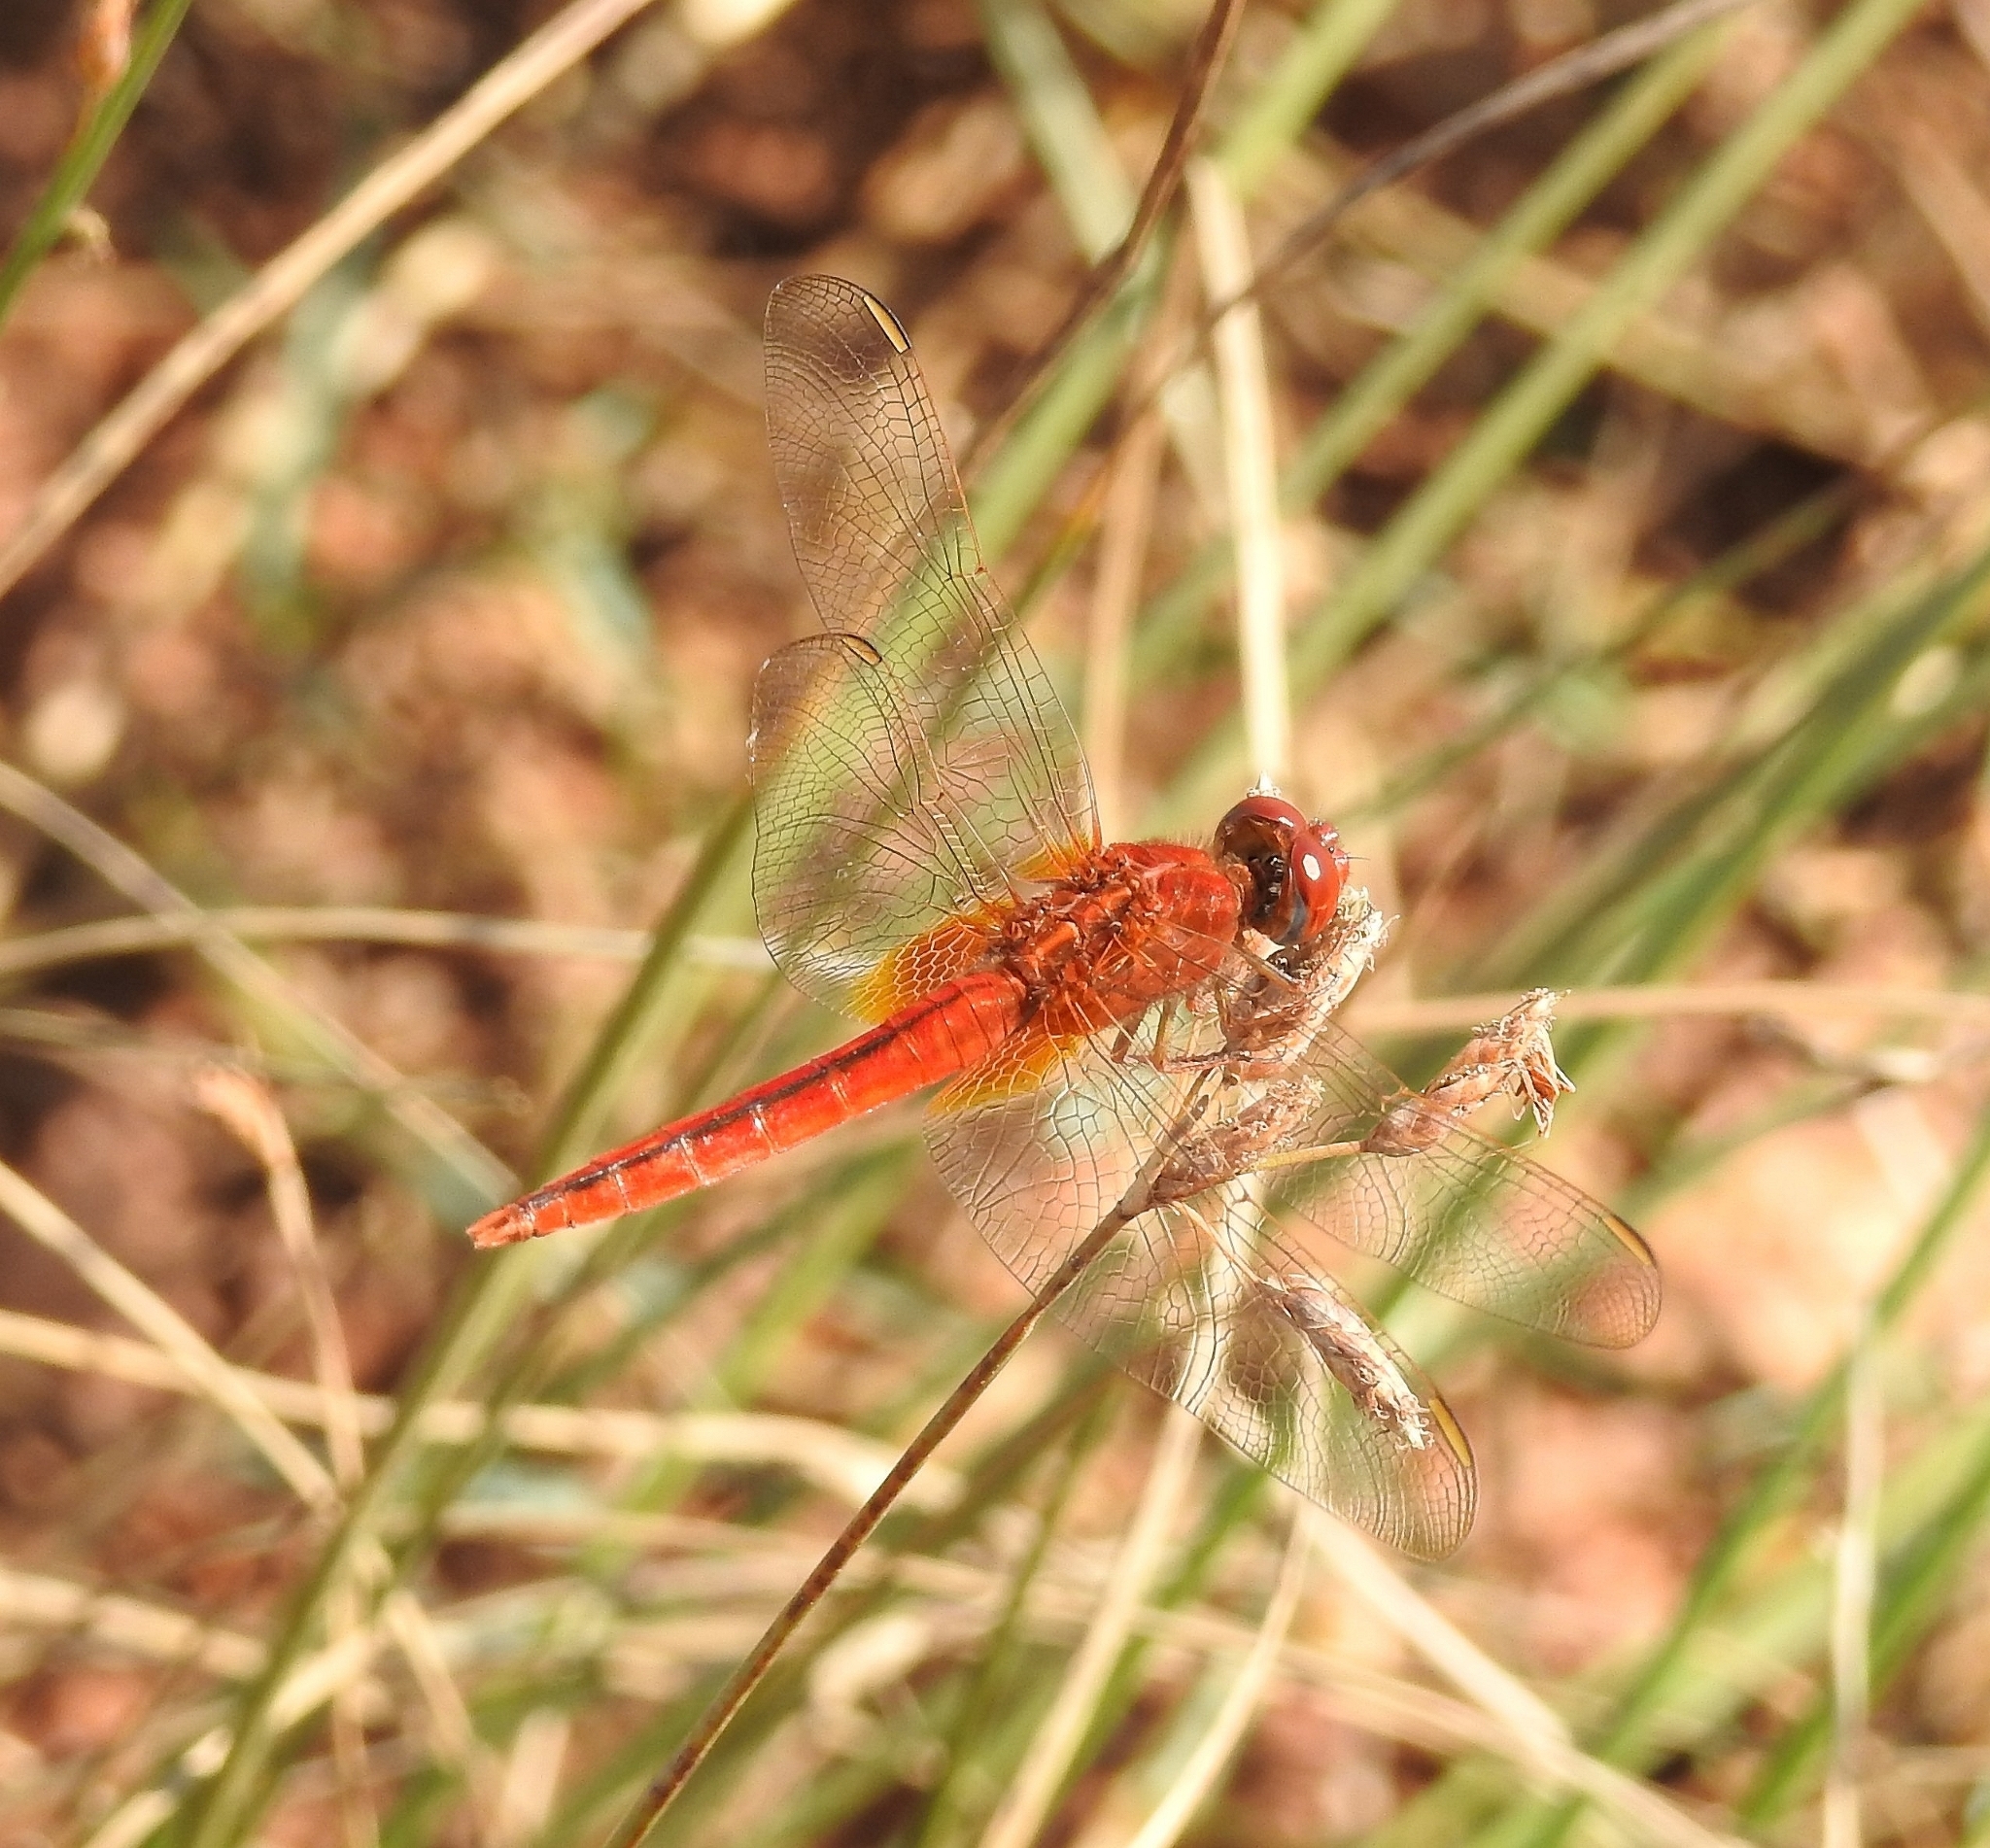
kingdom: Animalia
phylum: Arthropoda
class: Insecta
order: Odonata
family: Libellulidae
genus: Crocothemis
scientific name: Crocothemis servilia
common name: Scarlet skimmer
